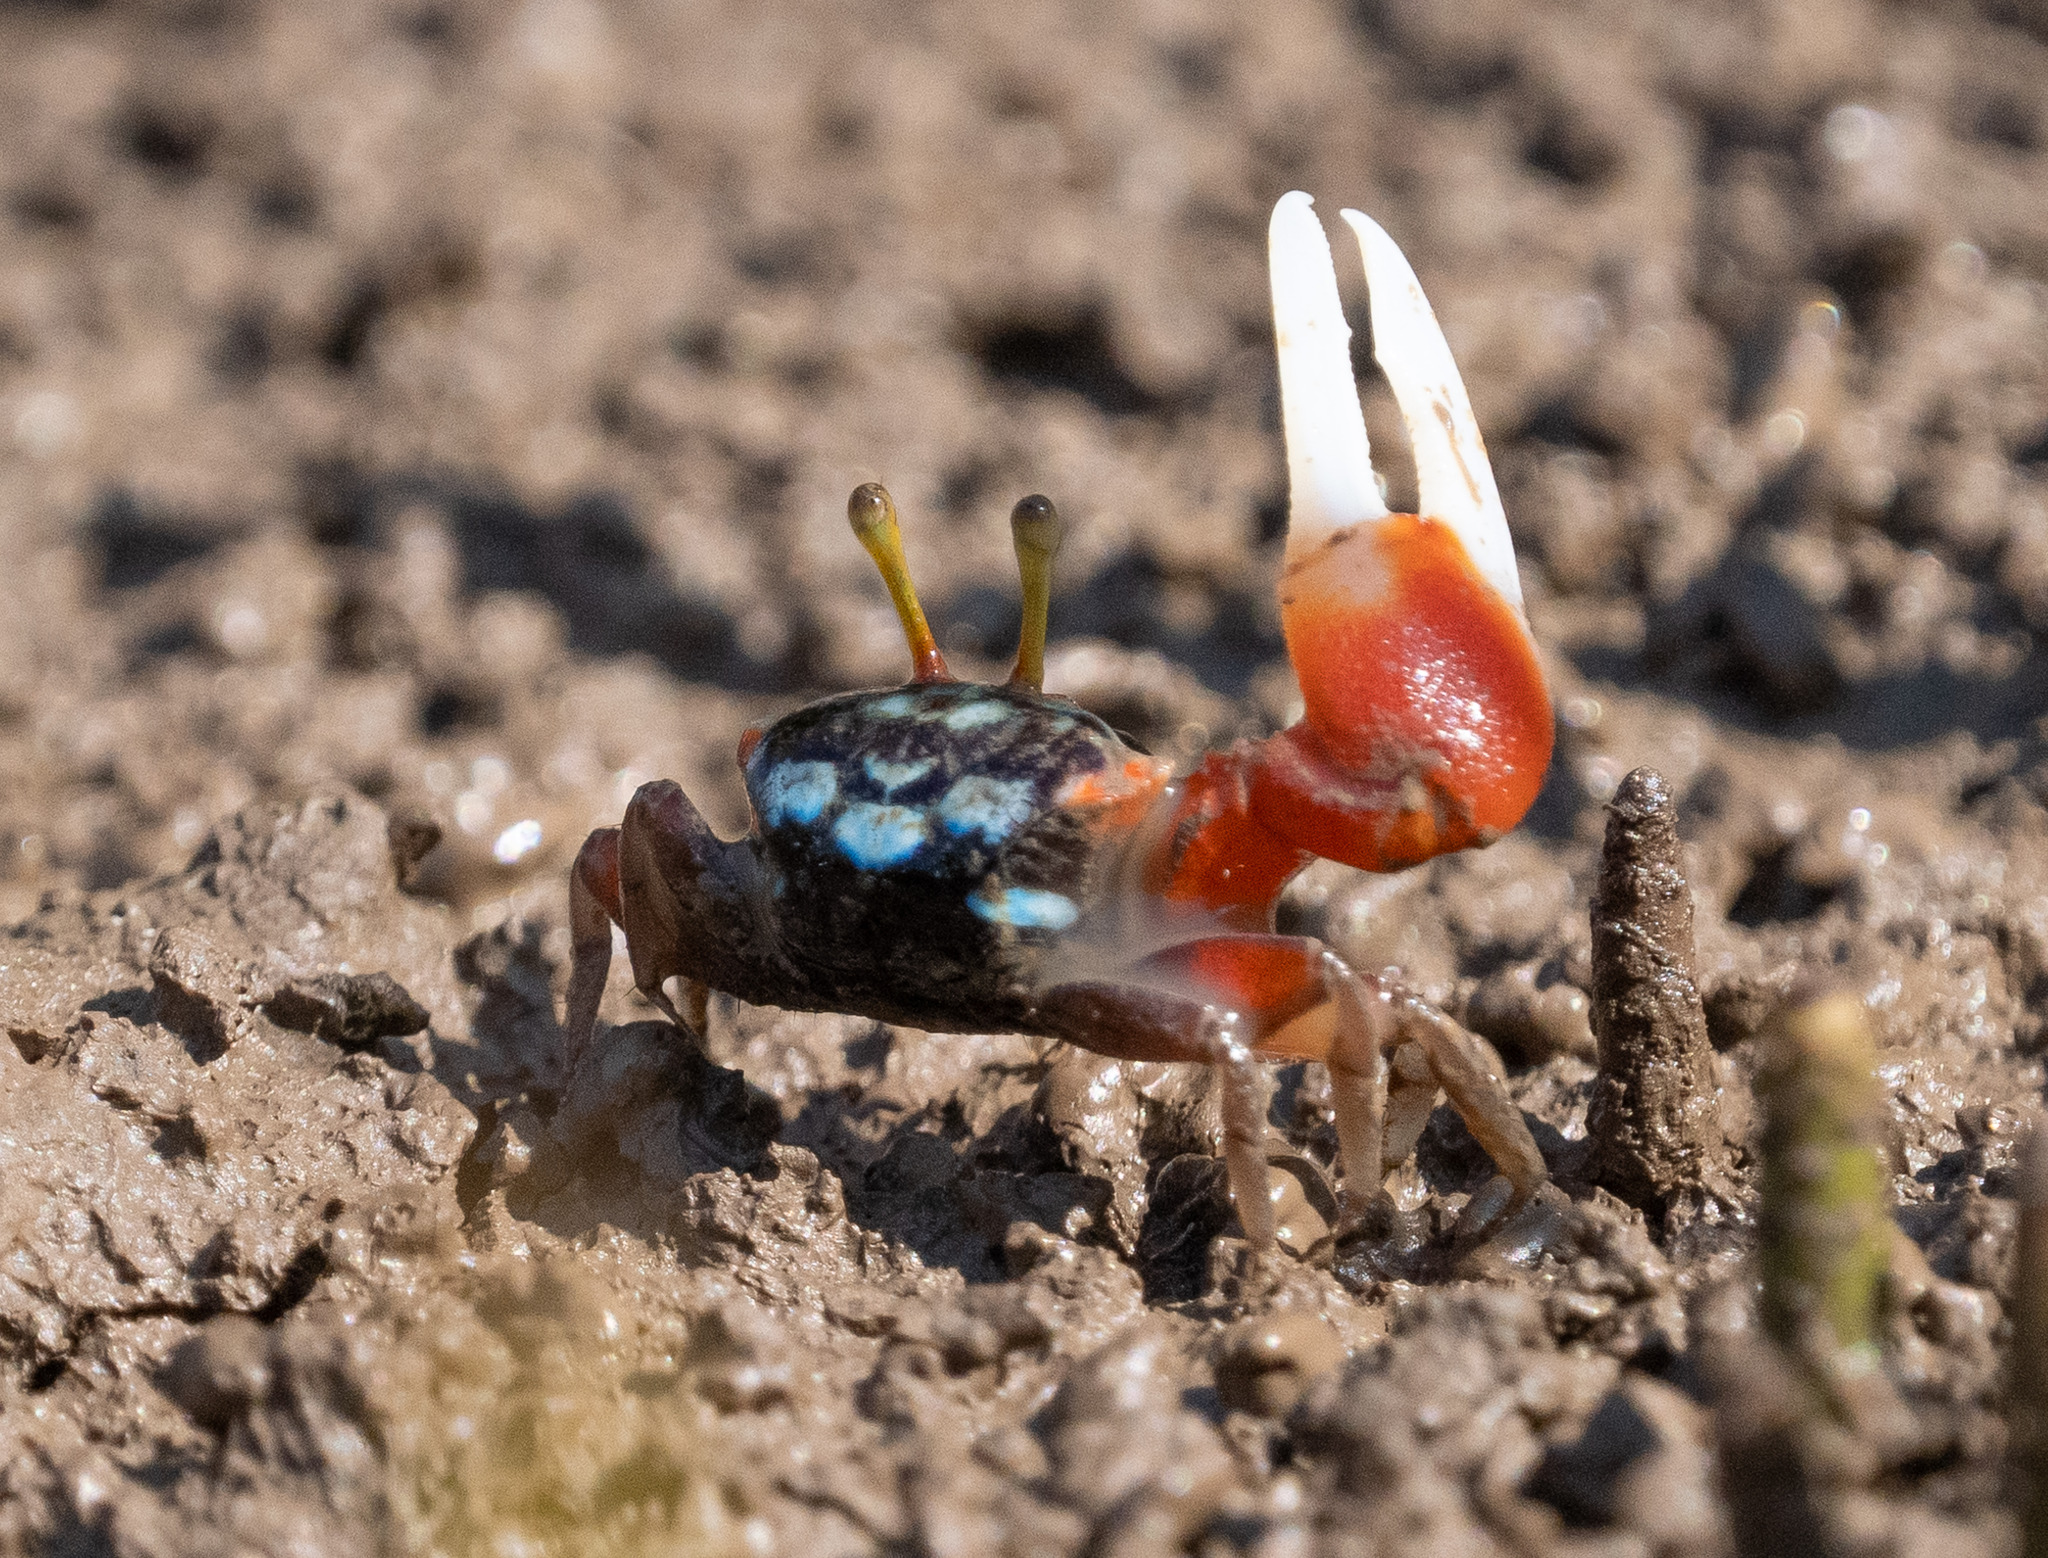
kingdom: Animalia
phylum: Arthropoda
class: Malacostraca
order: Decapoda
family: Ocypodidae
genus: Tubuca
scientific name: Tubuca signata
